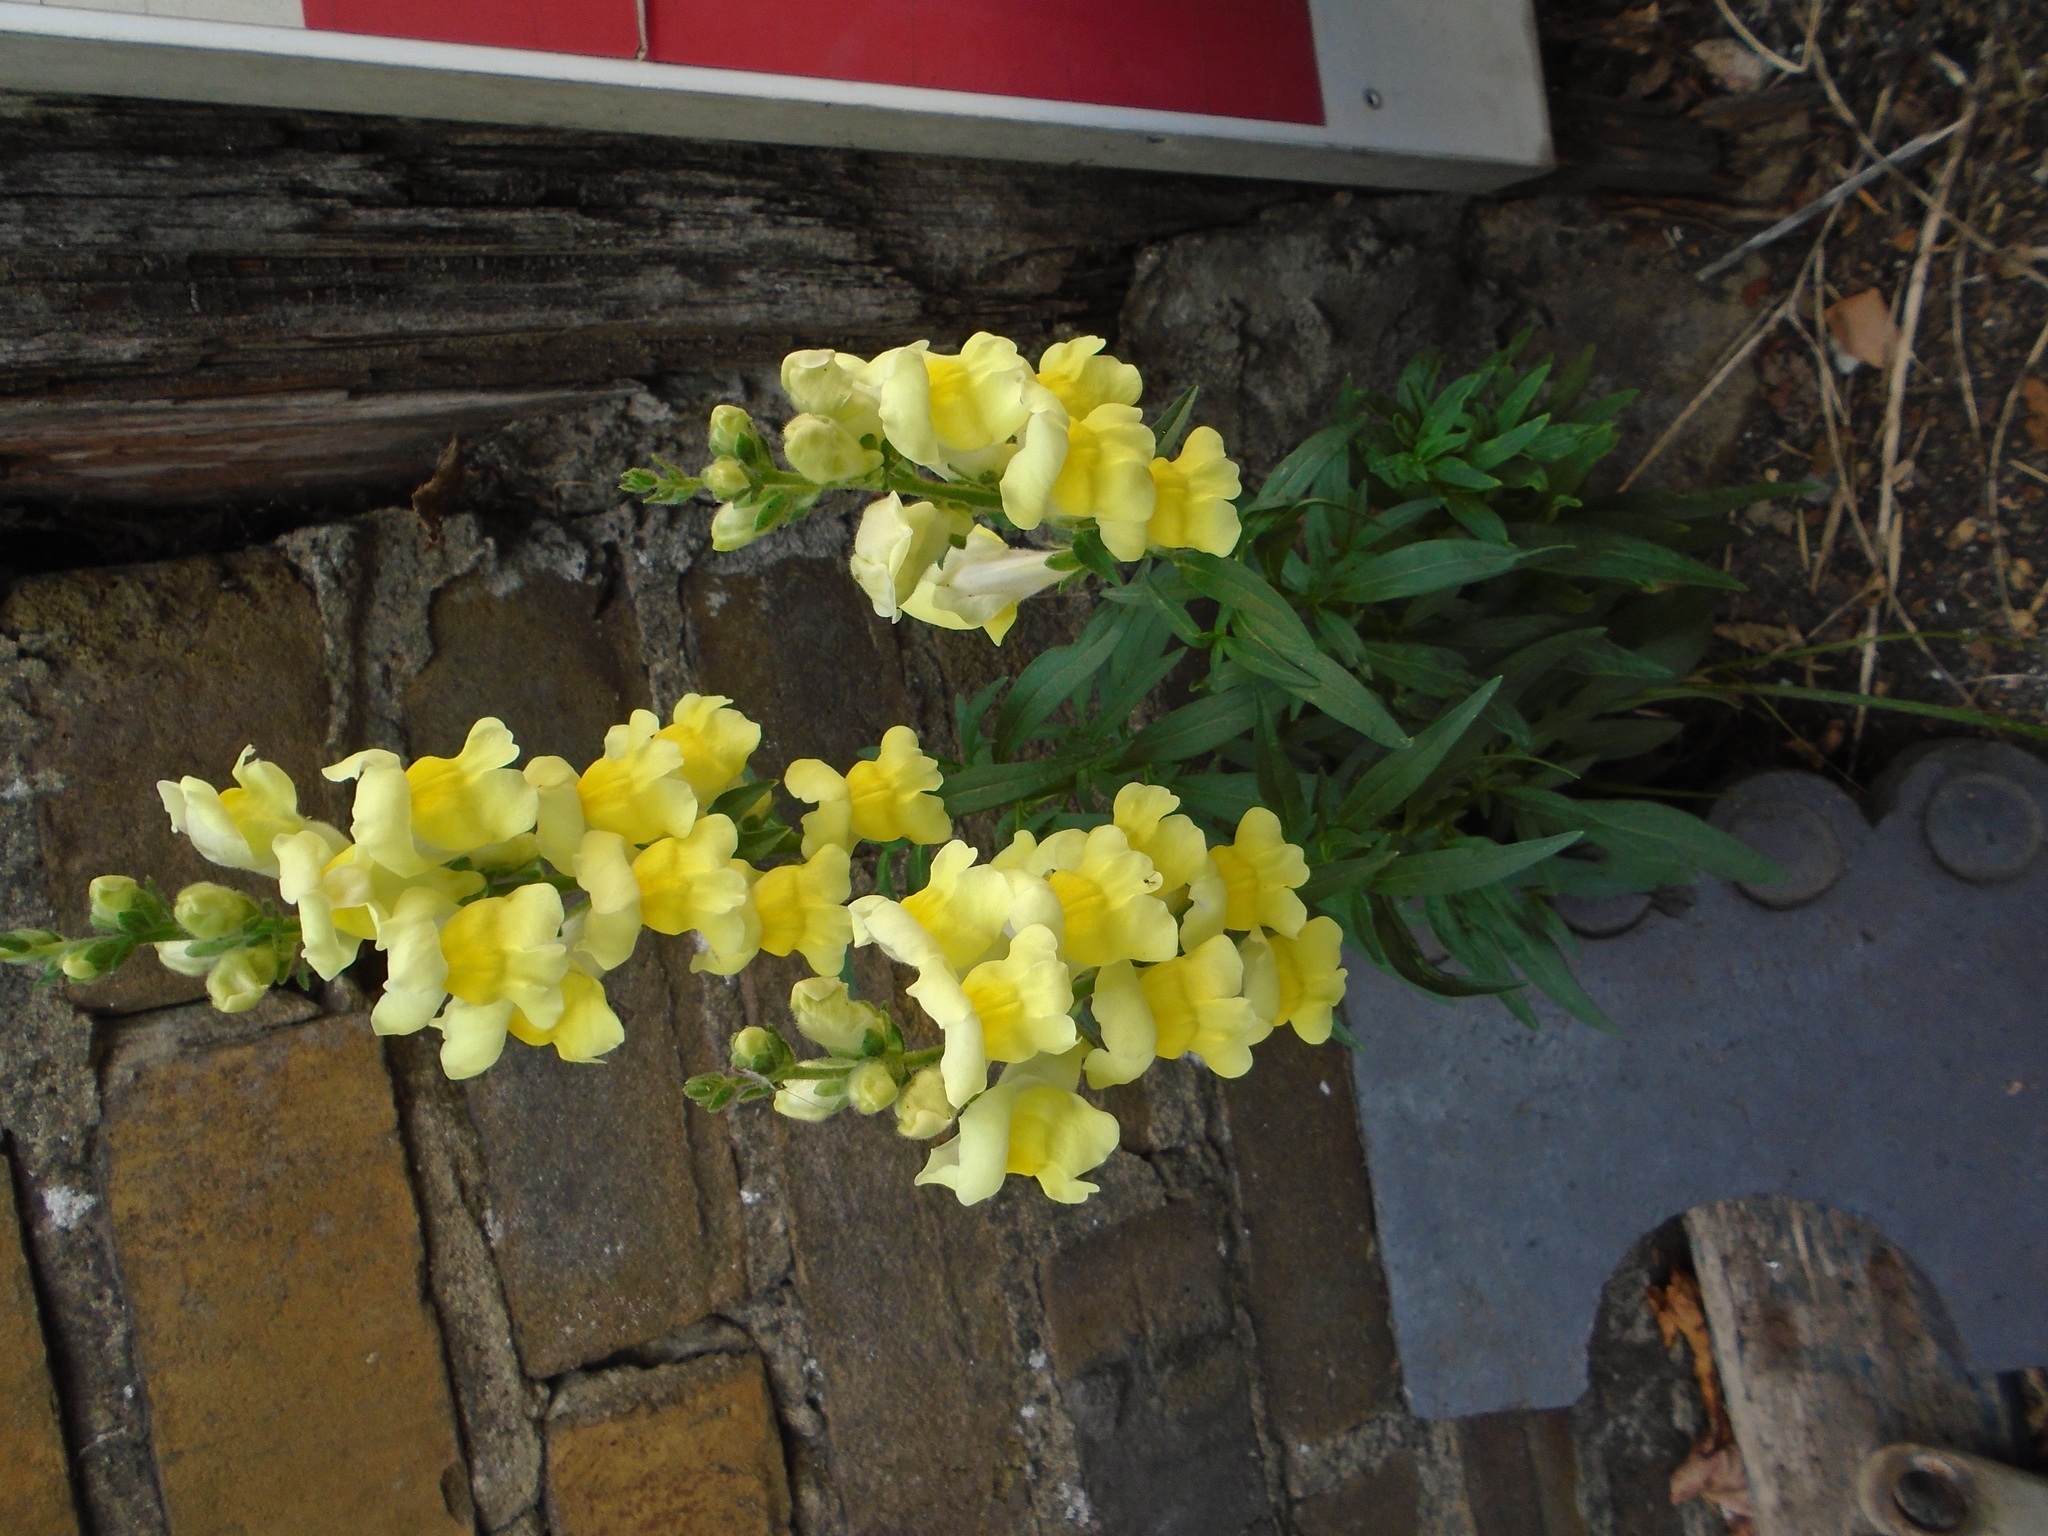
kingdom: Plantae
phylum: Tracheophyta
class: Magnoliopsida
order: Lamiales
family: Plantaginaceae
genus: Antirrhinum
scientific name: Antirrhinum majus
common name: Snapdragon
